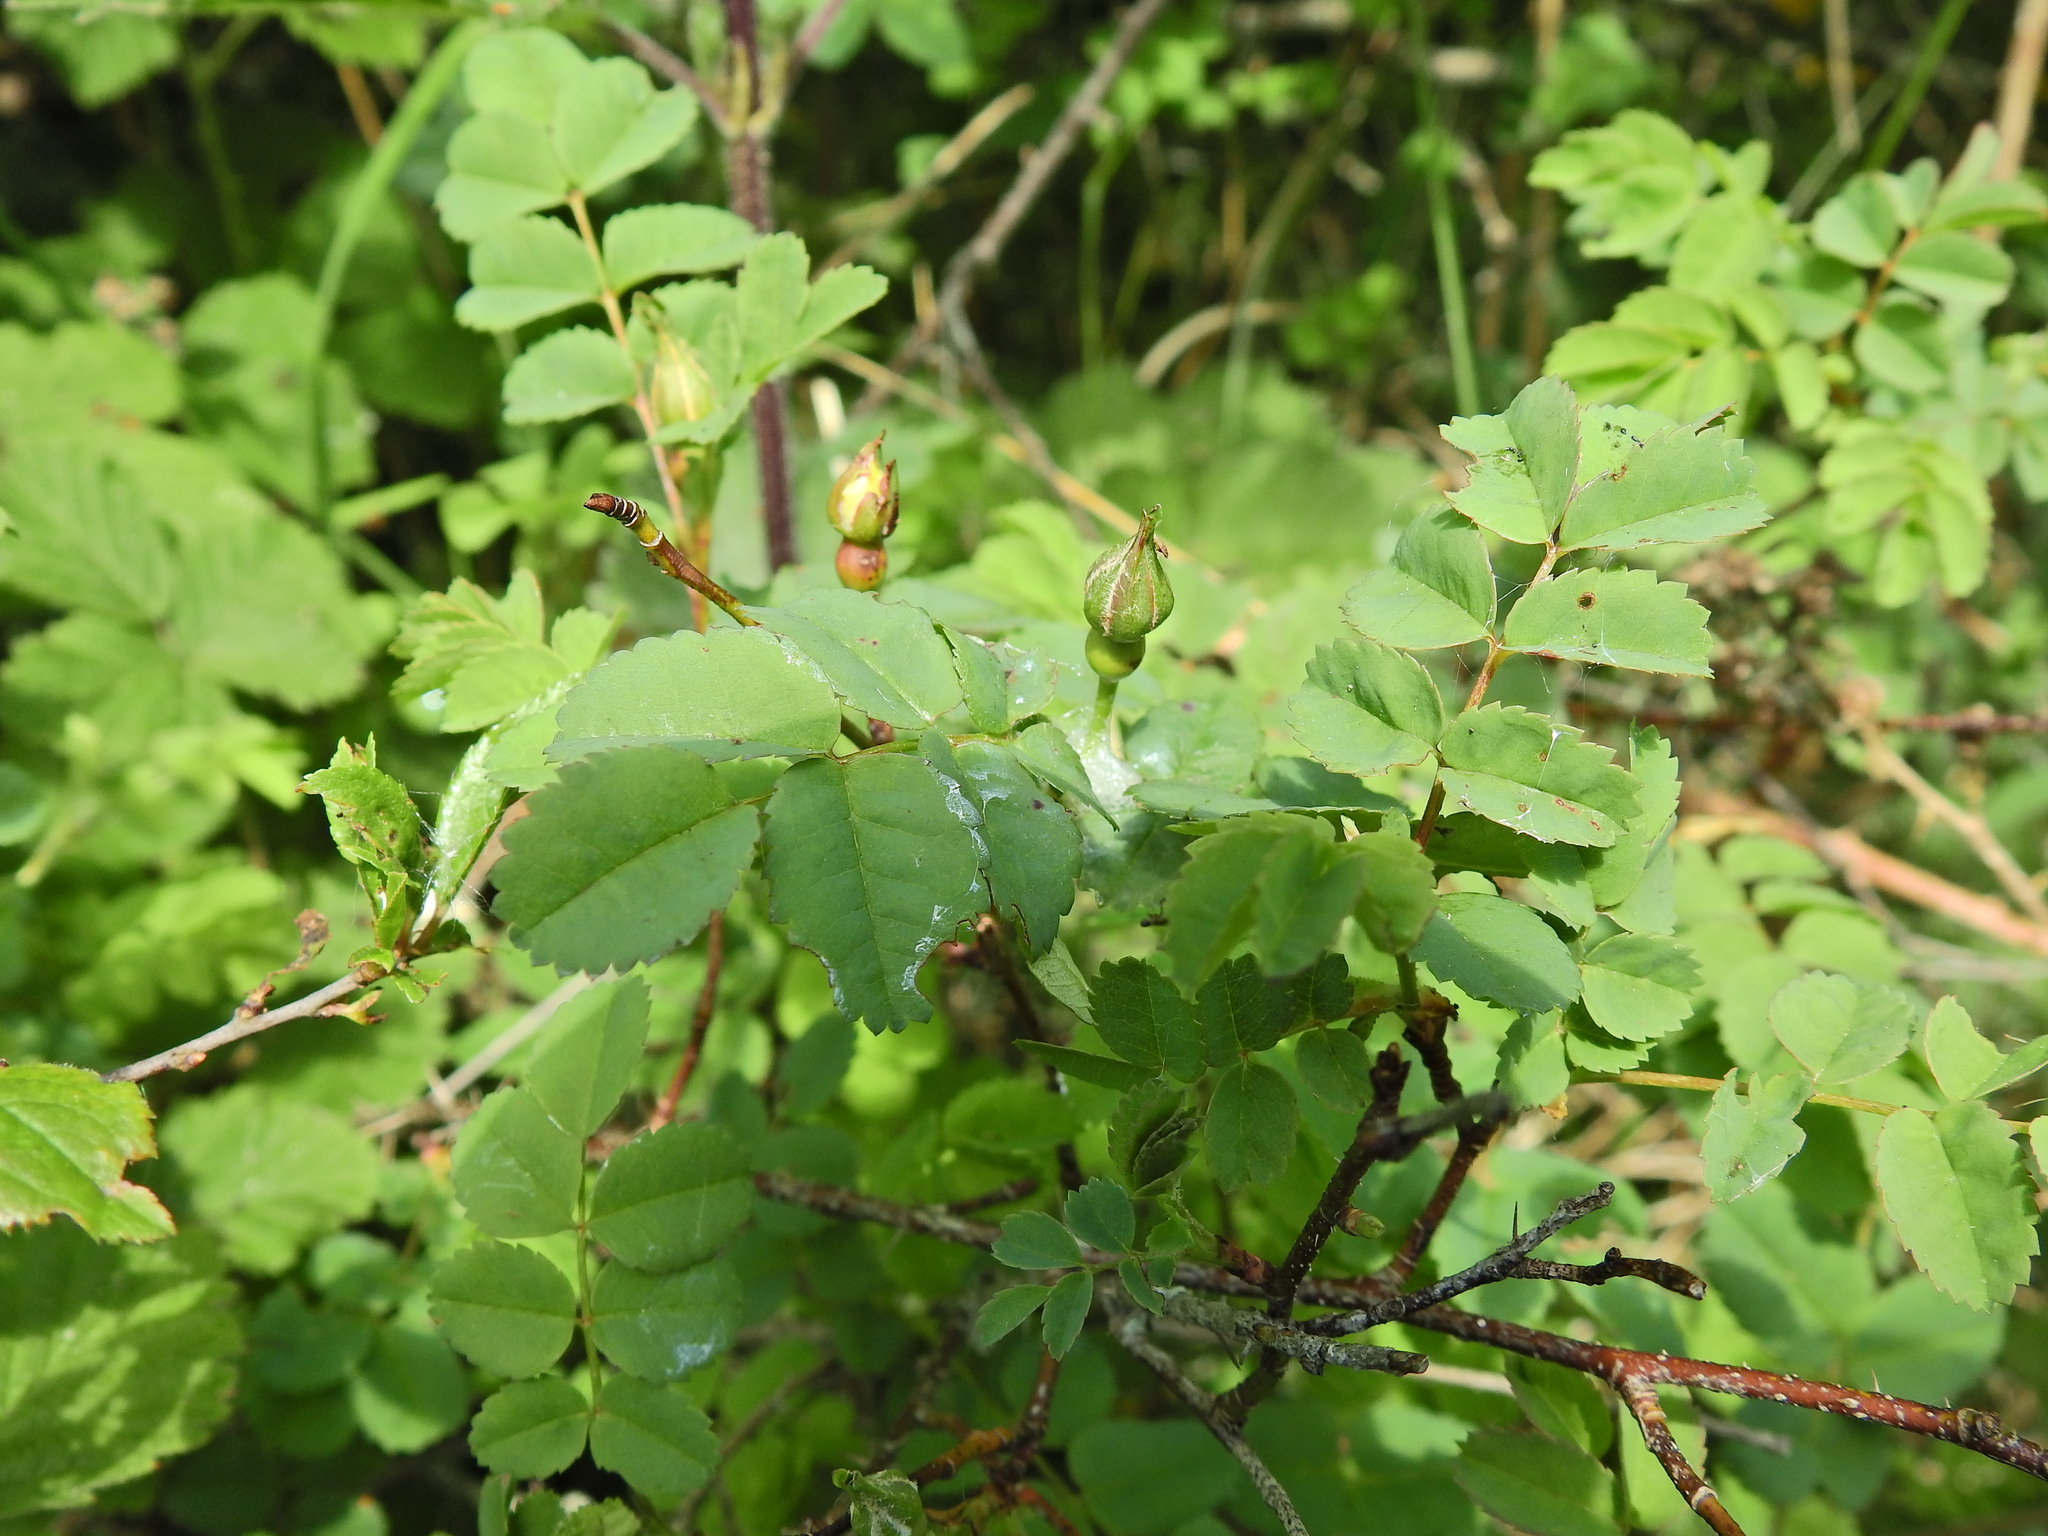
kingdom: Plantae
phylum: Tracheophyta
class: Magnoliopsida
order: Rosales
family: Rosaceae
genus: Rosa
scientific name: Rosa spinosissima
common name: Burnet rose
